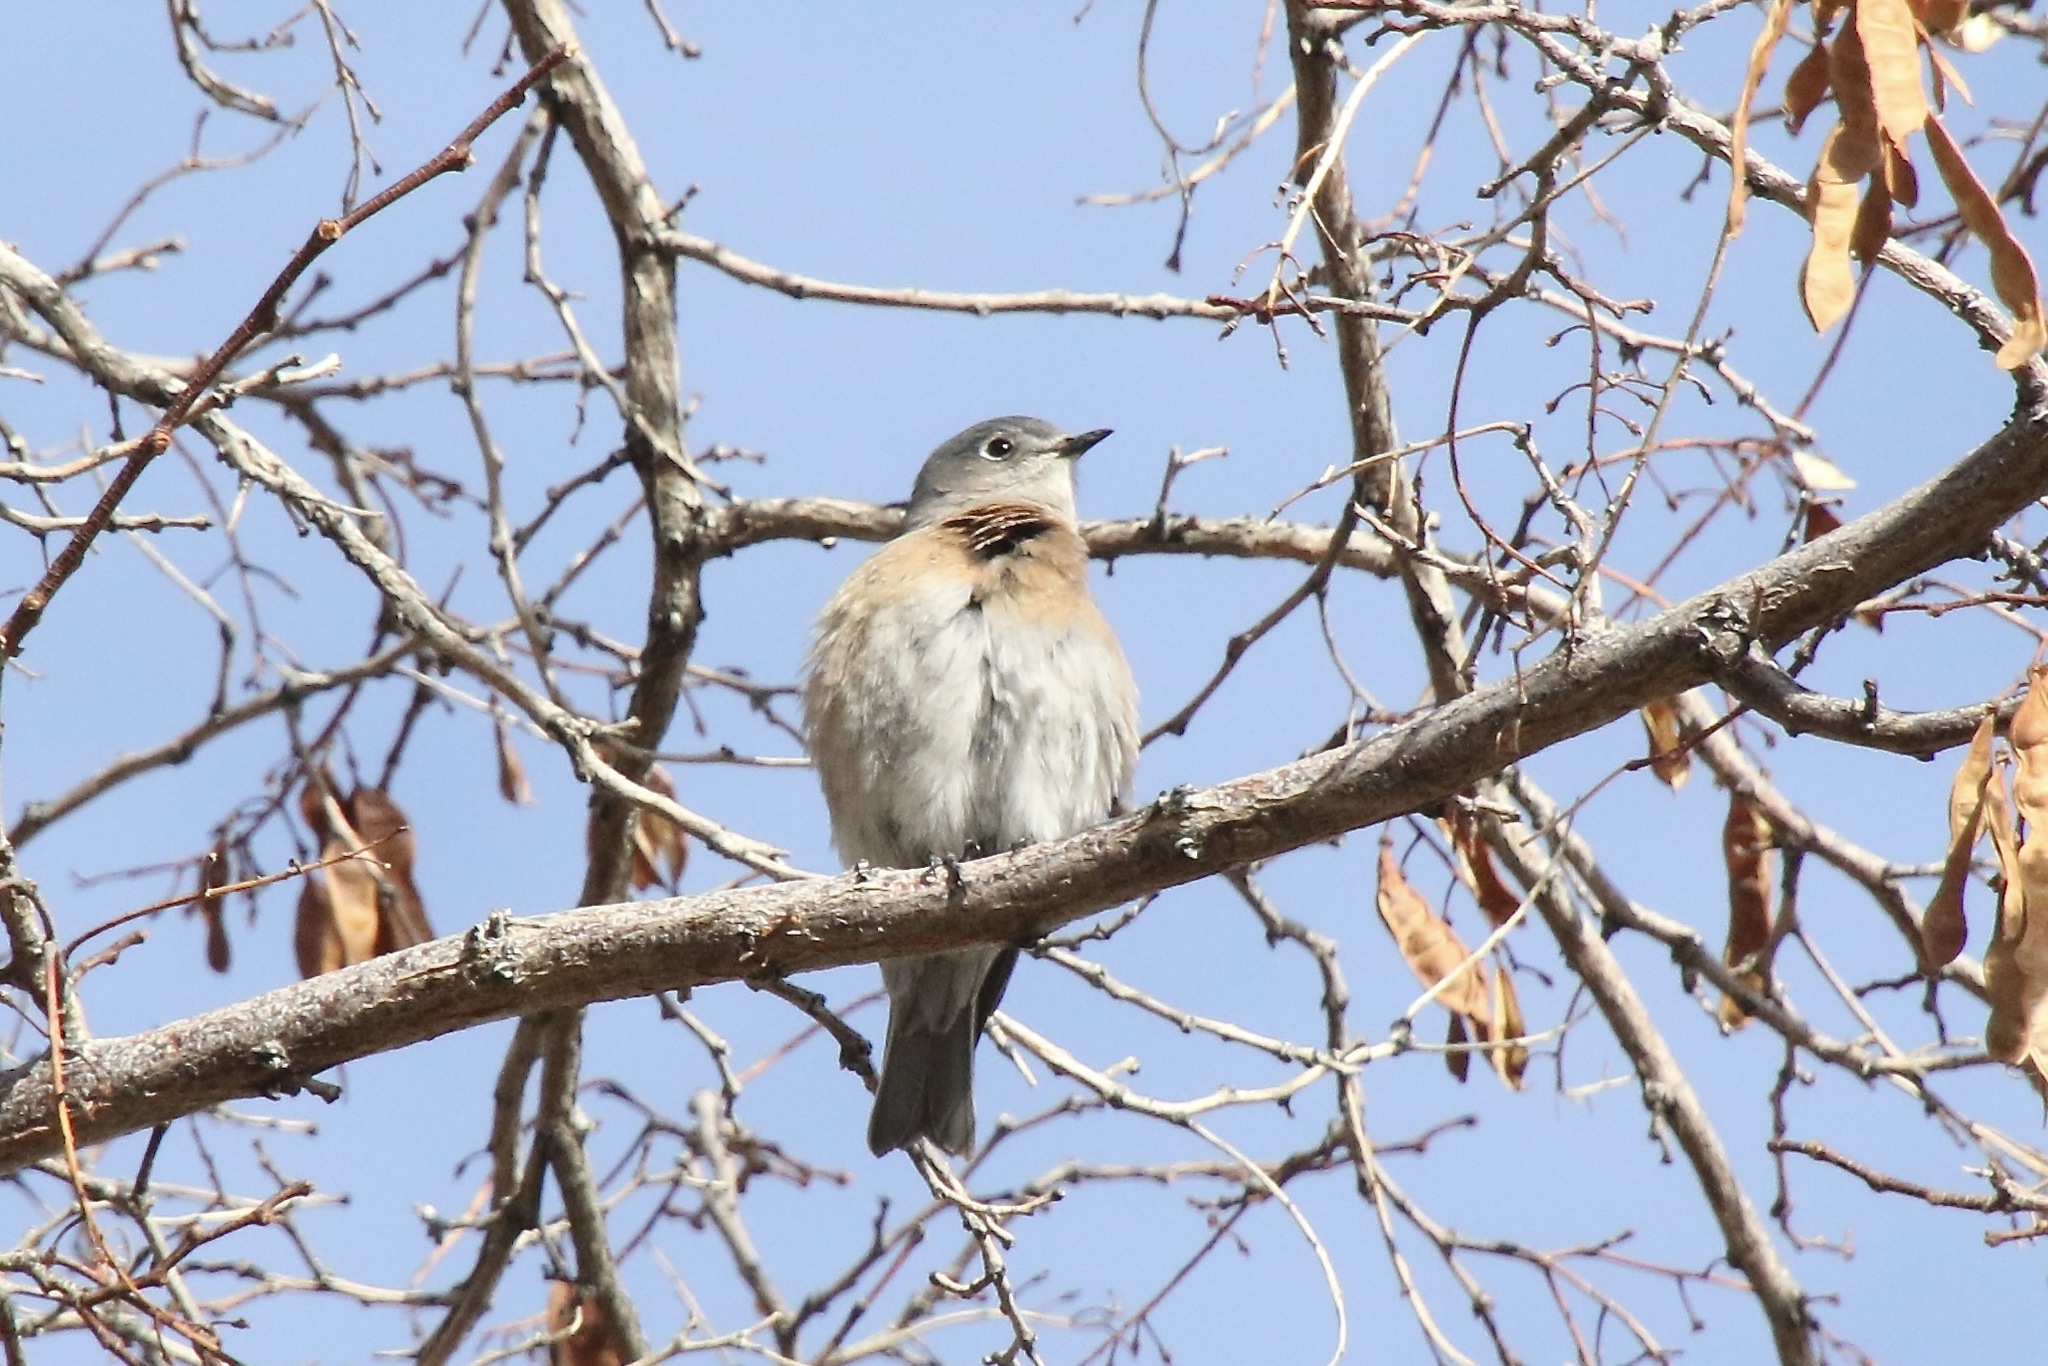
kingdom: Animalia
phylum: Chordata
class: Aves
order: Passeriformes
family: Turdidae
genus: Sialia
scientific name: Sialia mexicana
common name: Western bluebird
